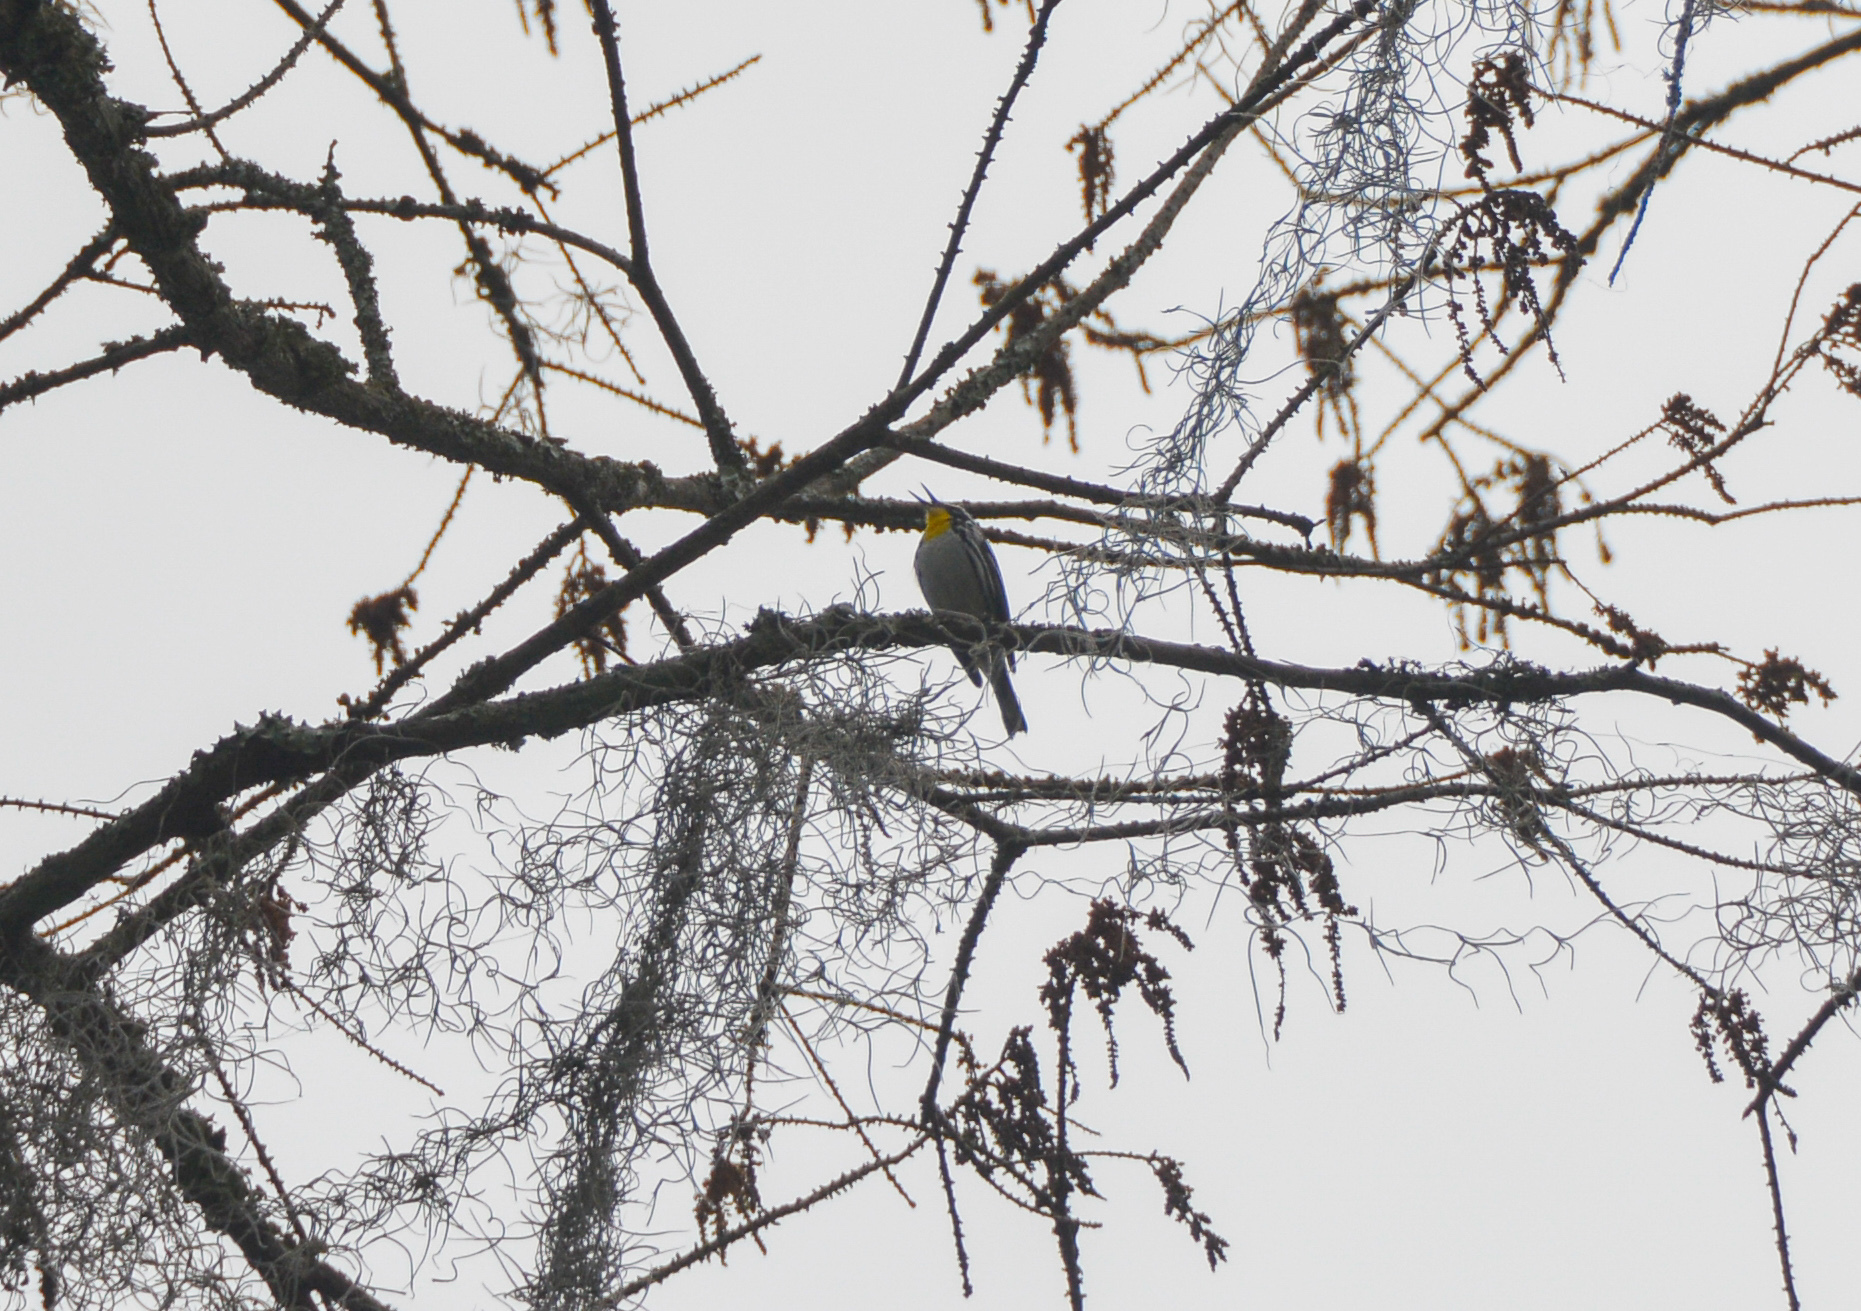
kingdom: Animalia
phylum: Chordata
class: Aves
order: Passeriformes
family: Parulidae
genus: Setophaga
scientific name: Setophaga dominica
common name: Yellow-throated warbler
